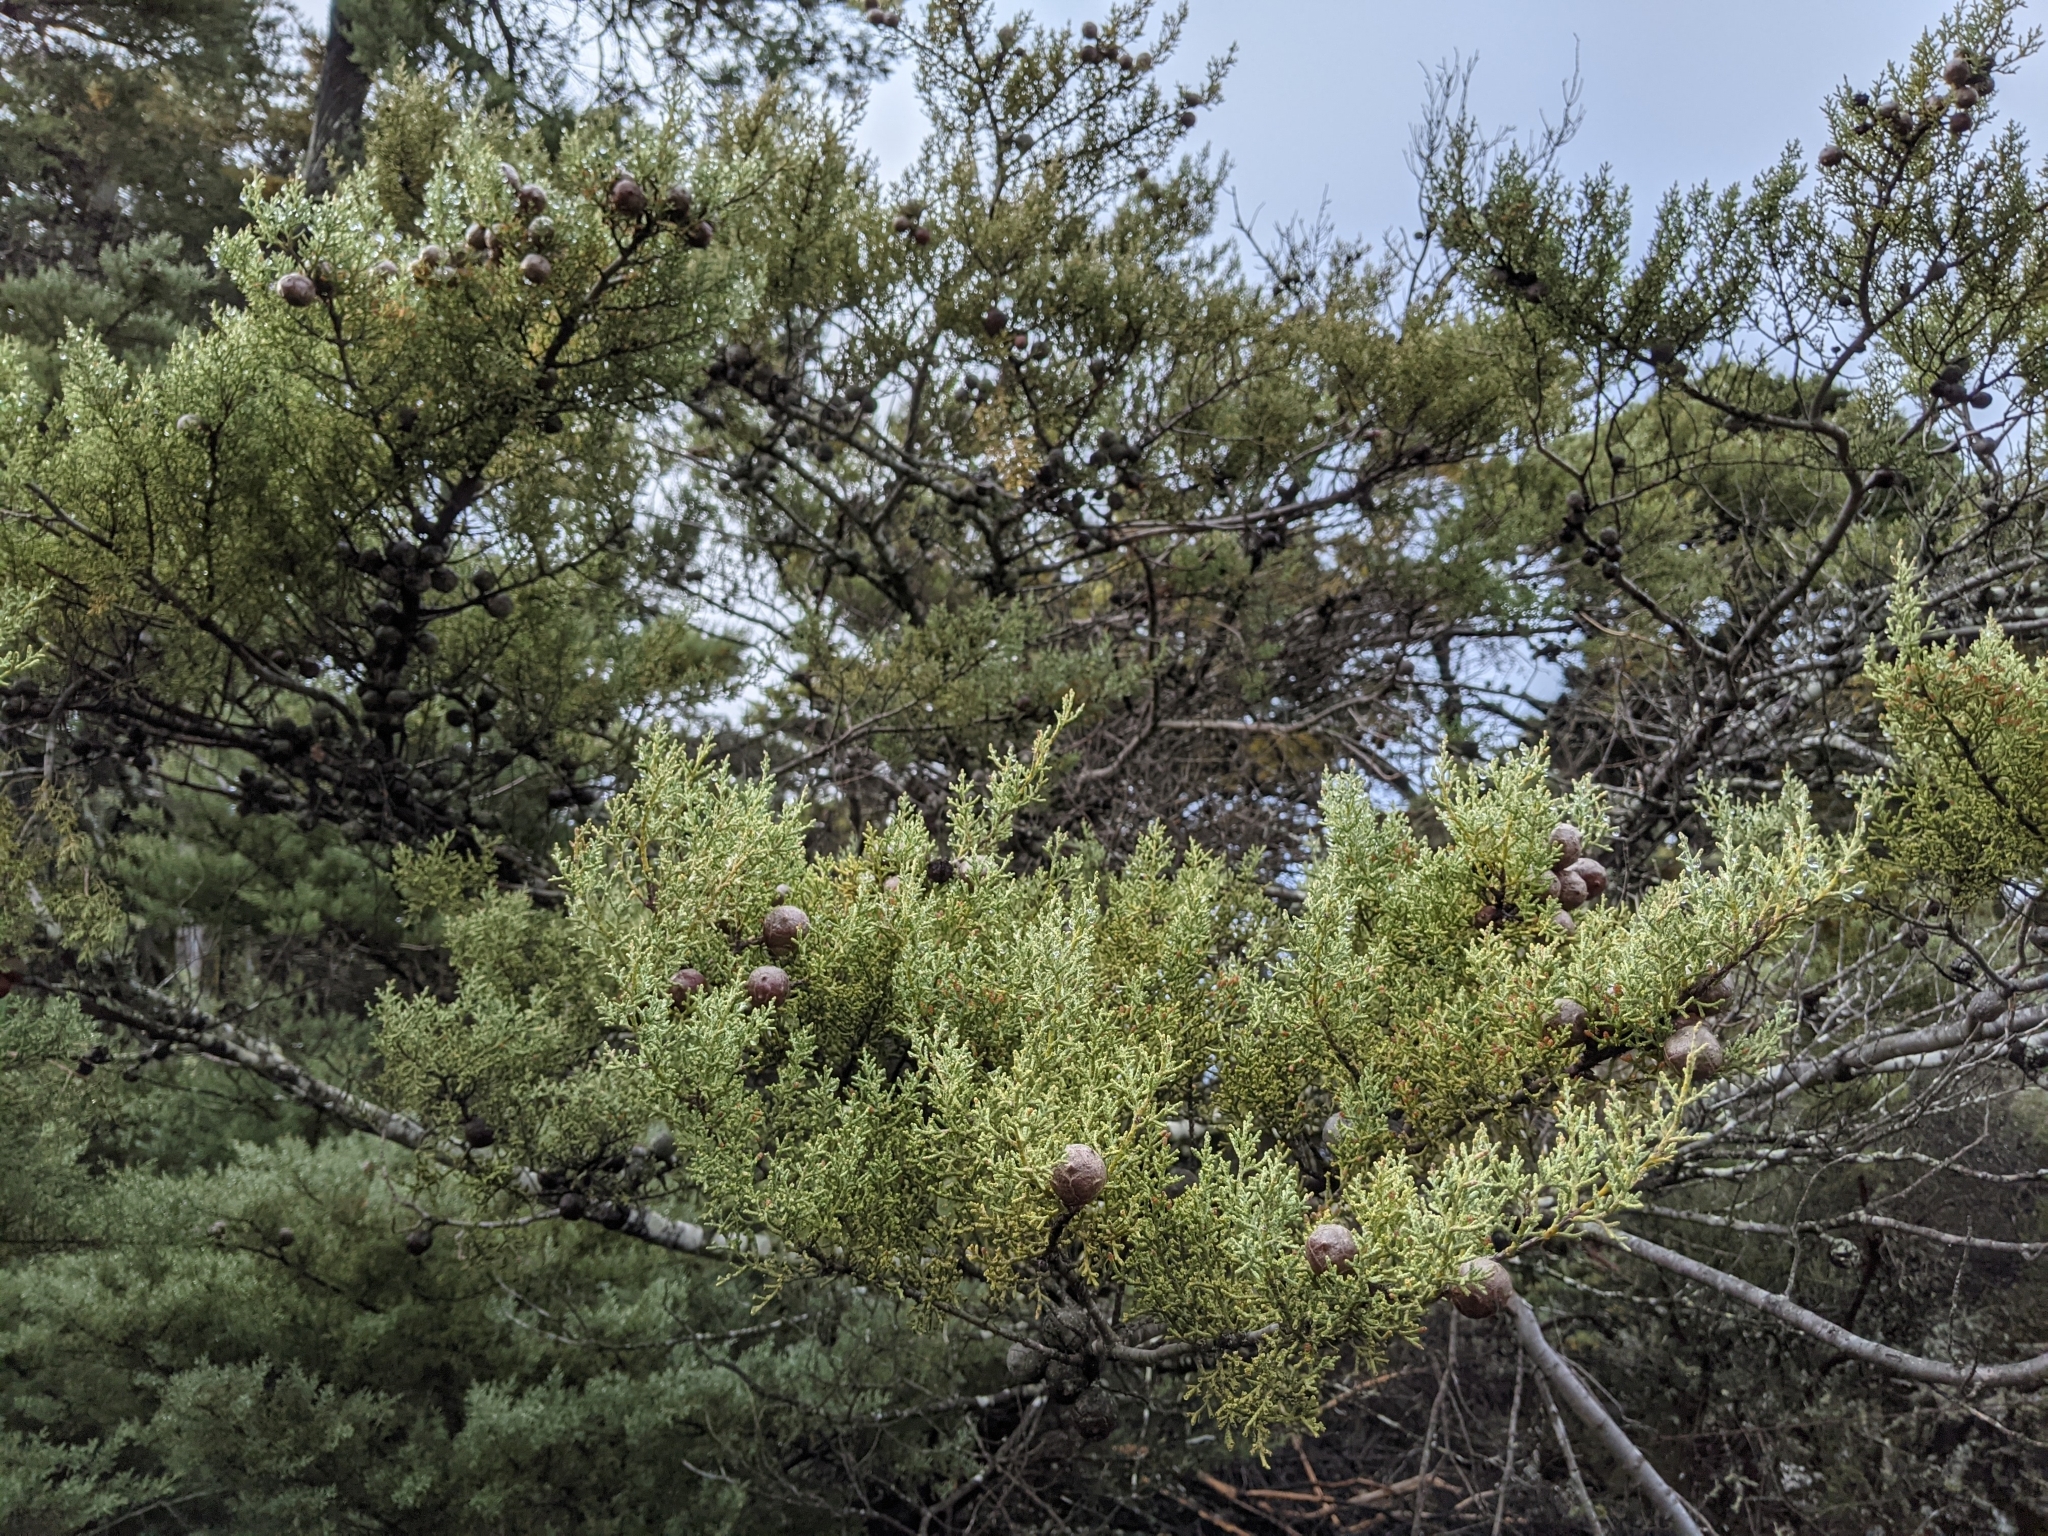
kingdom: Plantae
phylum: Tracheophyta
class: Pinopsida
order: Pinales
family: Cupressaceae
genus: Cupressus
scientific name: Cupressus sargentii
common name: Sargent cypress
